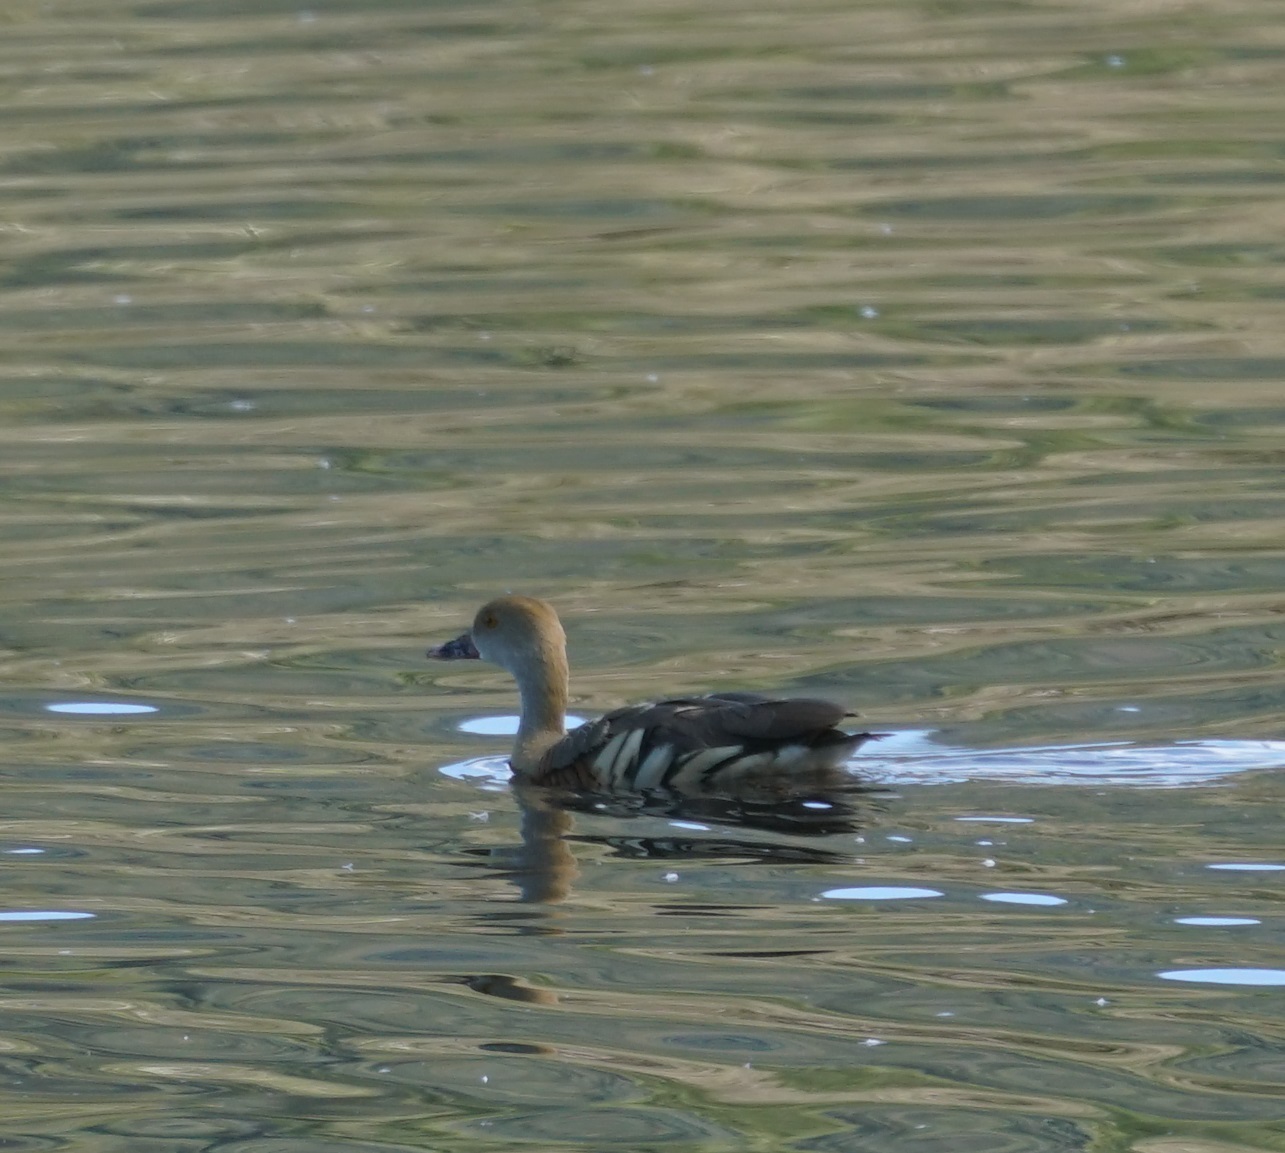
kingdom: Animalia
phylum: Chordata
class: Aves
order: Anseriformes
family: Anatidae
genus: Dendrocygna
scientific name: Dendrocygna eytoni
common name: Plumed whistling-duck
